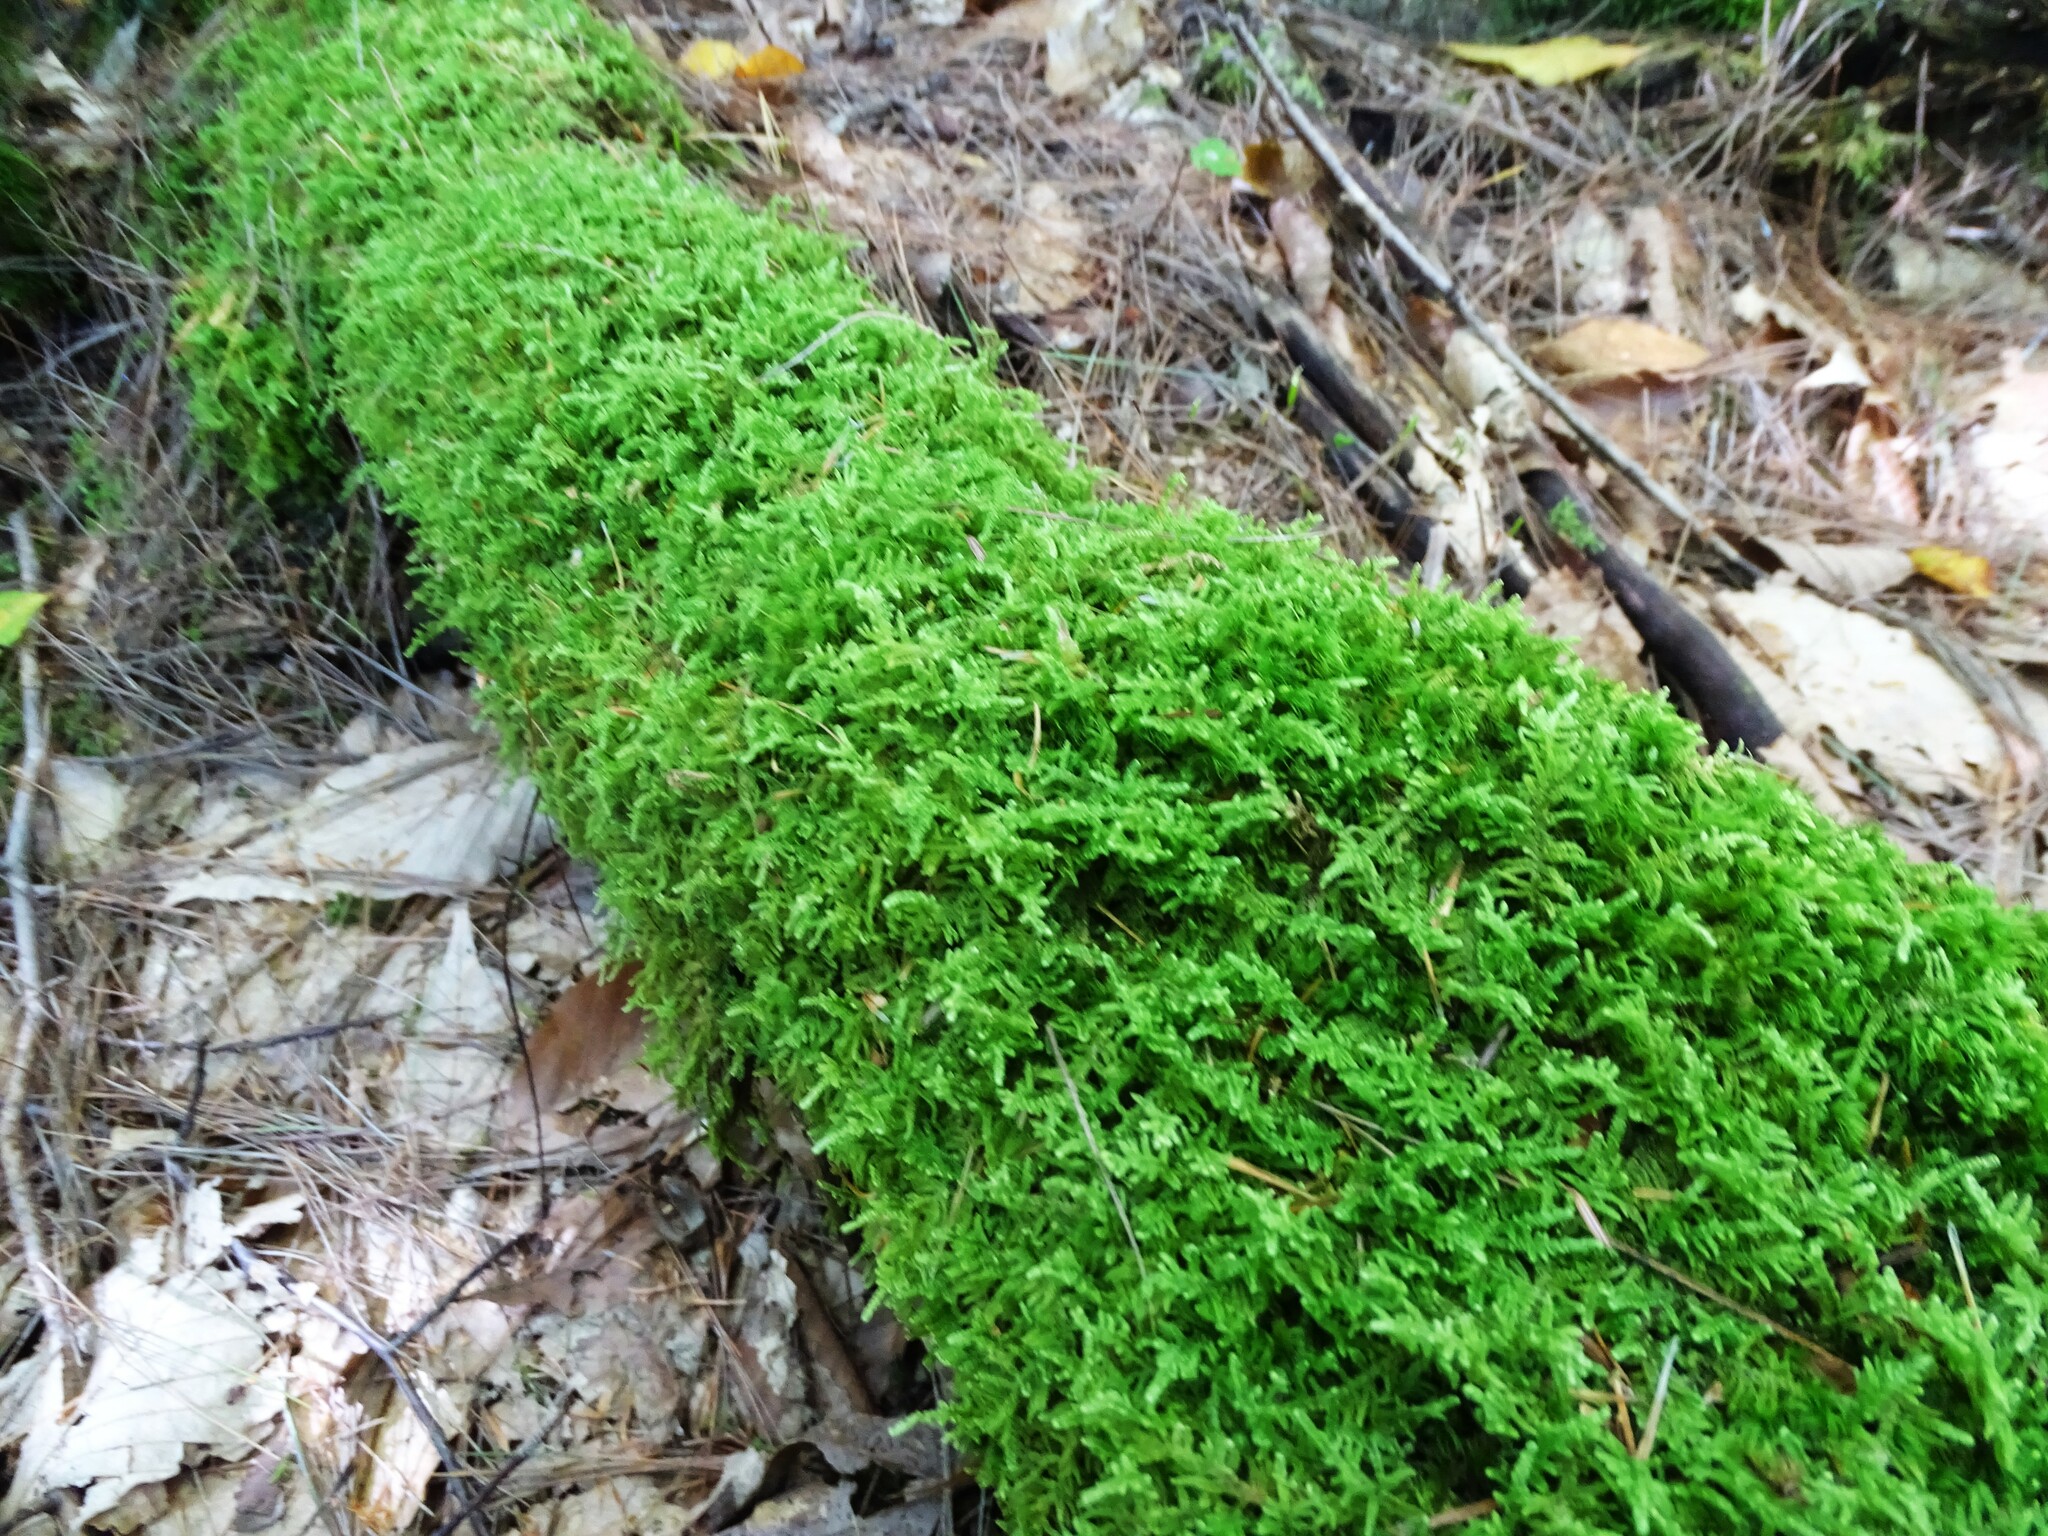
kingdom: Plantae
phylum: Bryophyta
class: Bryopsida
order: Hypnales
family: Callicladiaceae
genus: Callicladium
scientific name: Callicladium imponens
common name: Brocade moss
